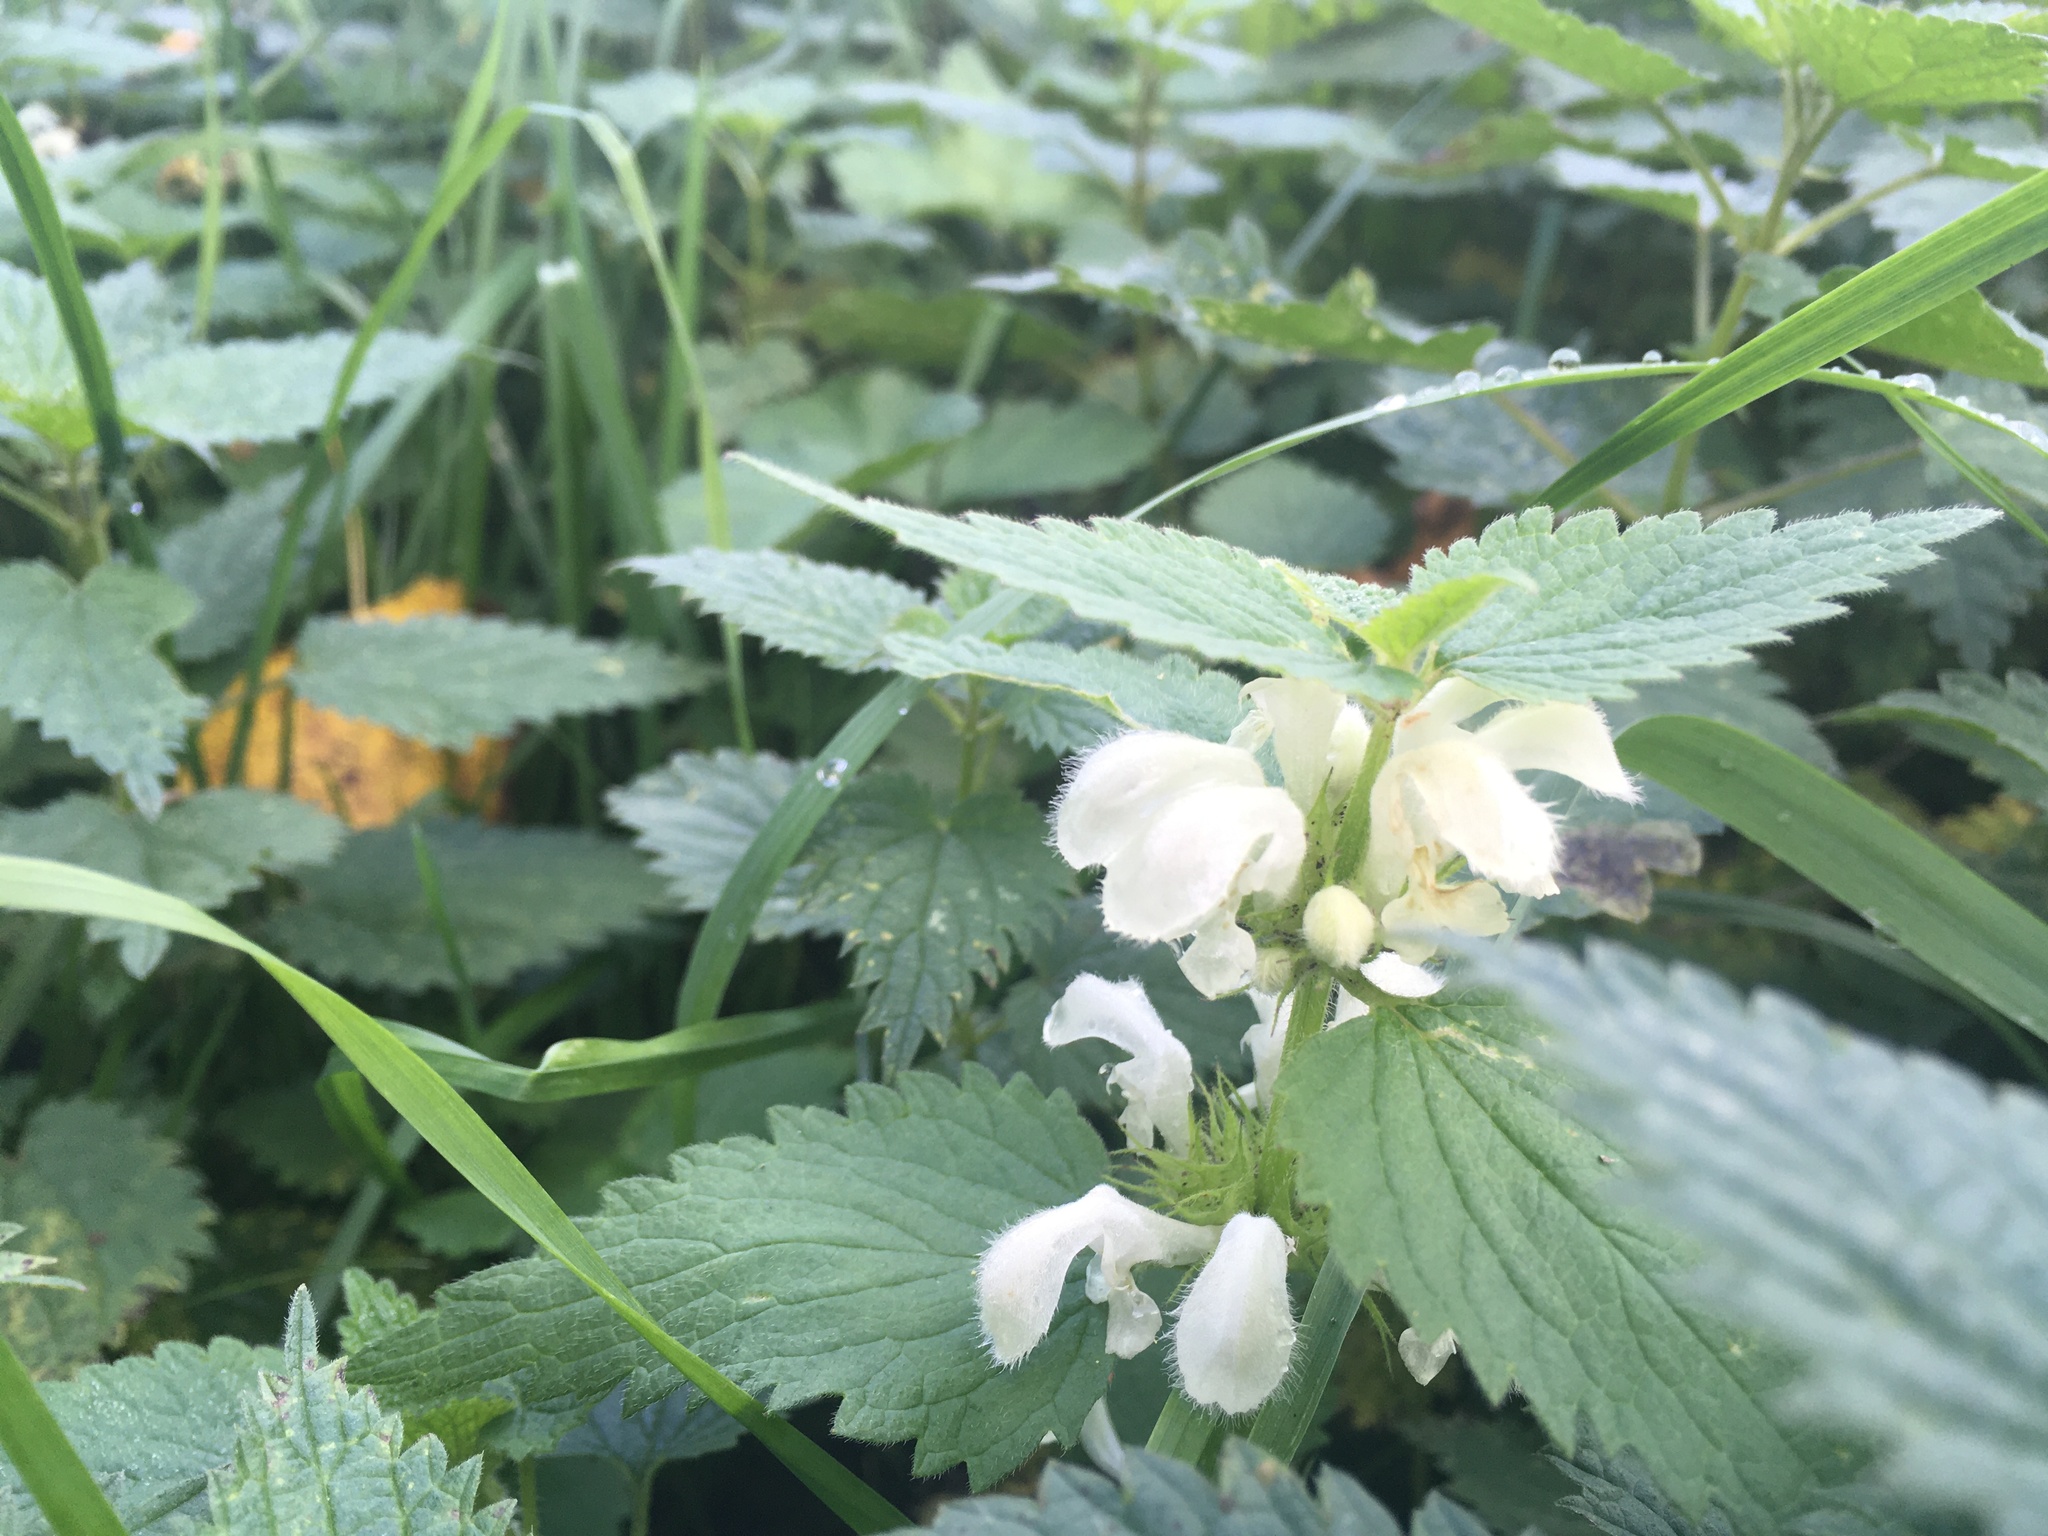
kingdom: Plantae
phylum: Tracheophyta
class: Magnoliopsida
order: Lamiales
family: Lamiaceae
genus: Lamium
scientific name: Lamium album
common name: White dead-nettle
